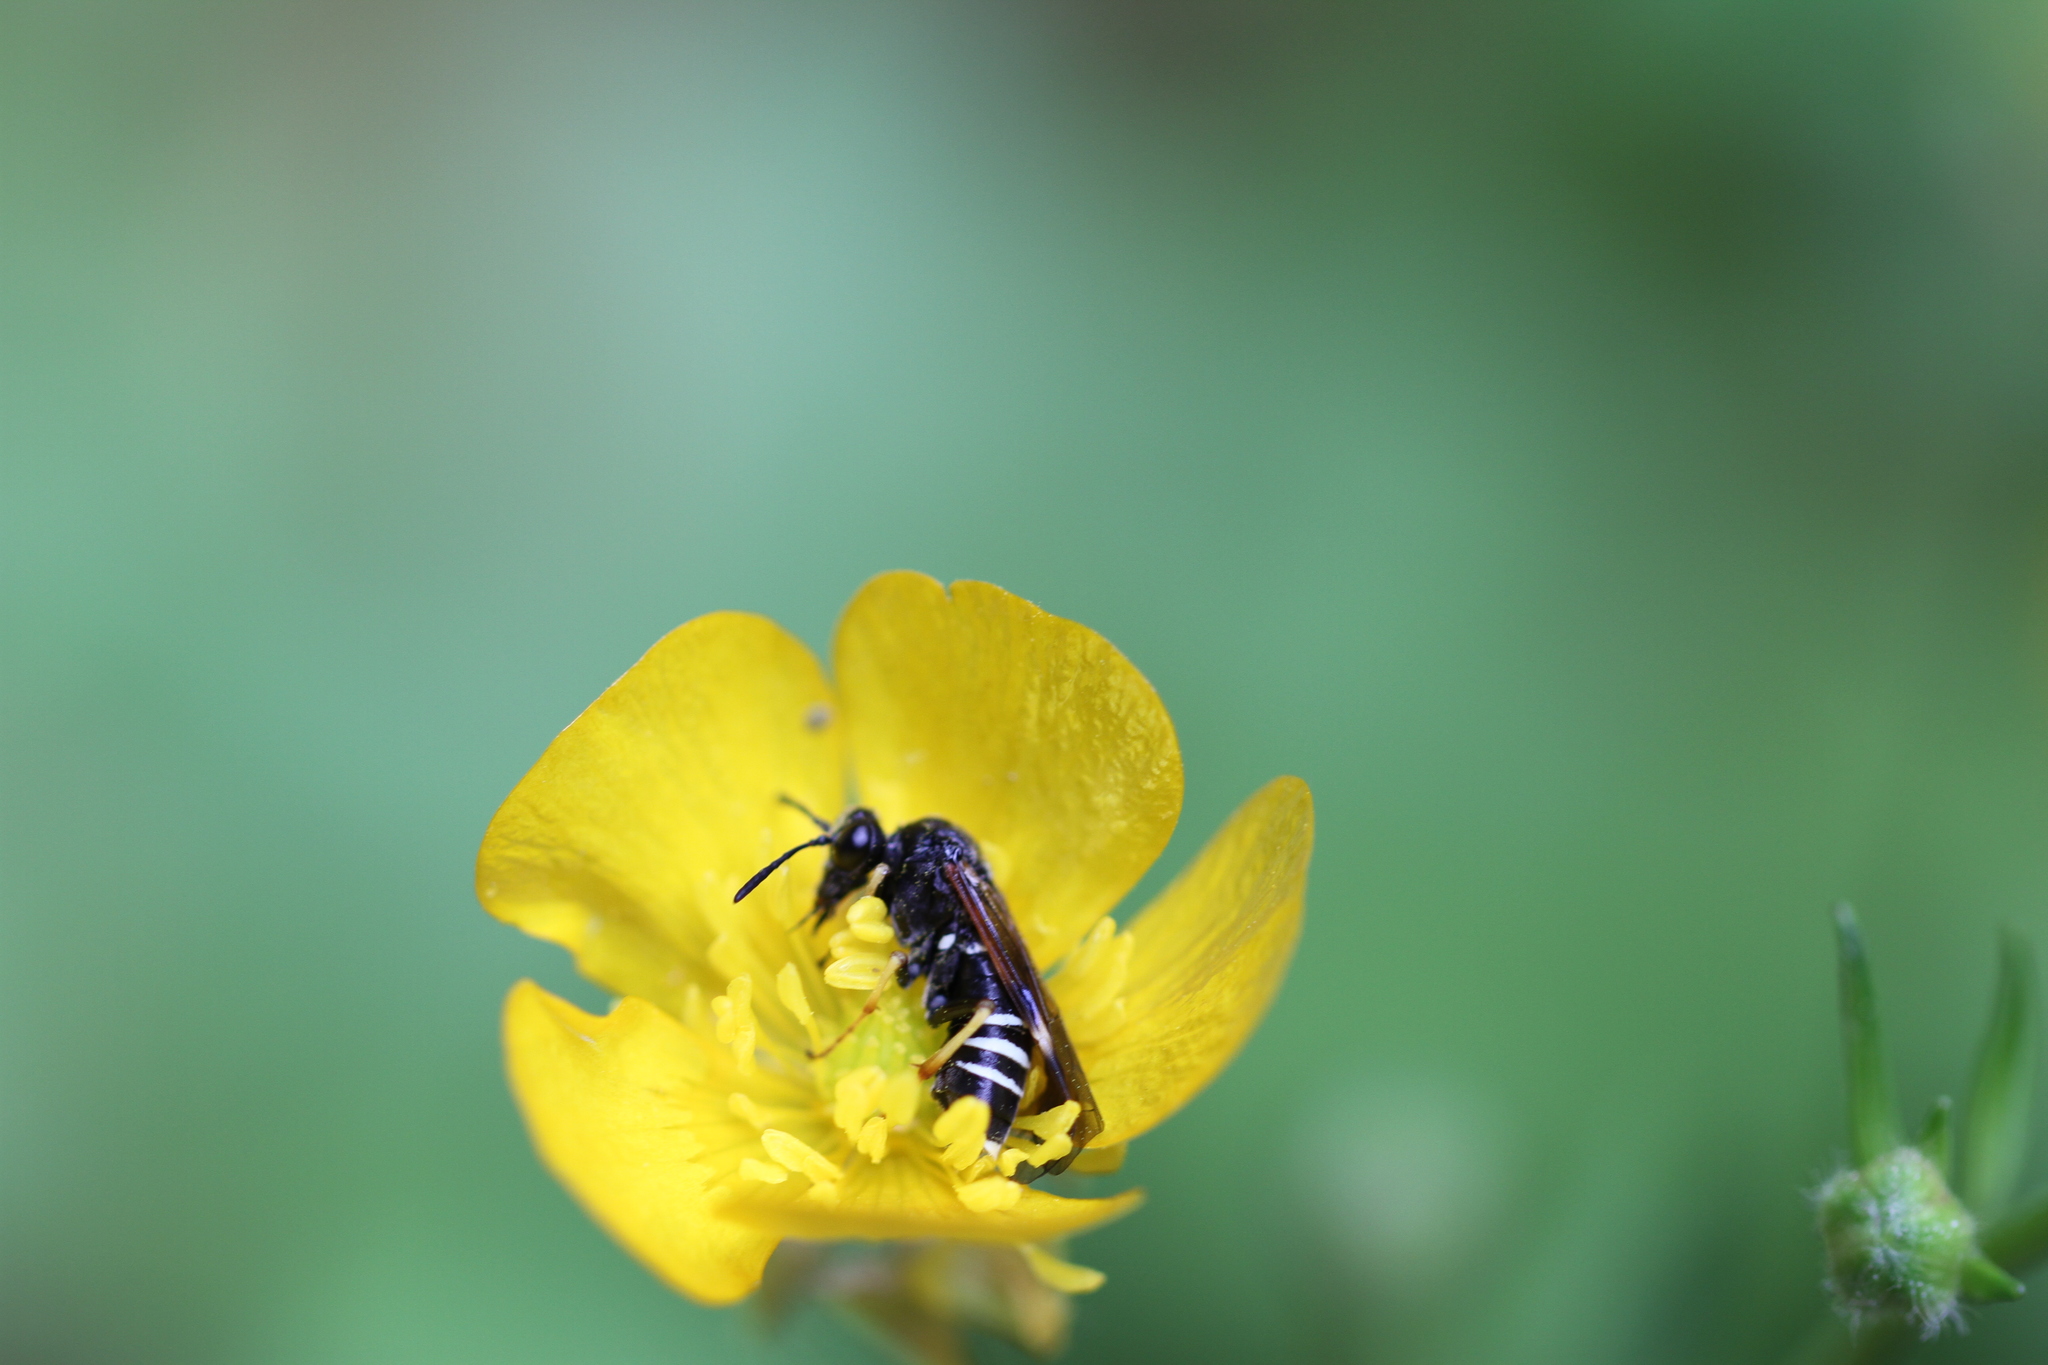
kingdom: Animalia
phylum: Arthropoda
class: Insecta
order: Hymenoptera
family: Tenthredinidae
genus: Tenthredo
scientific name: Tenthredo koehleri
